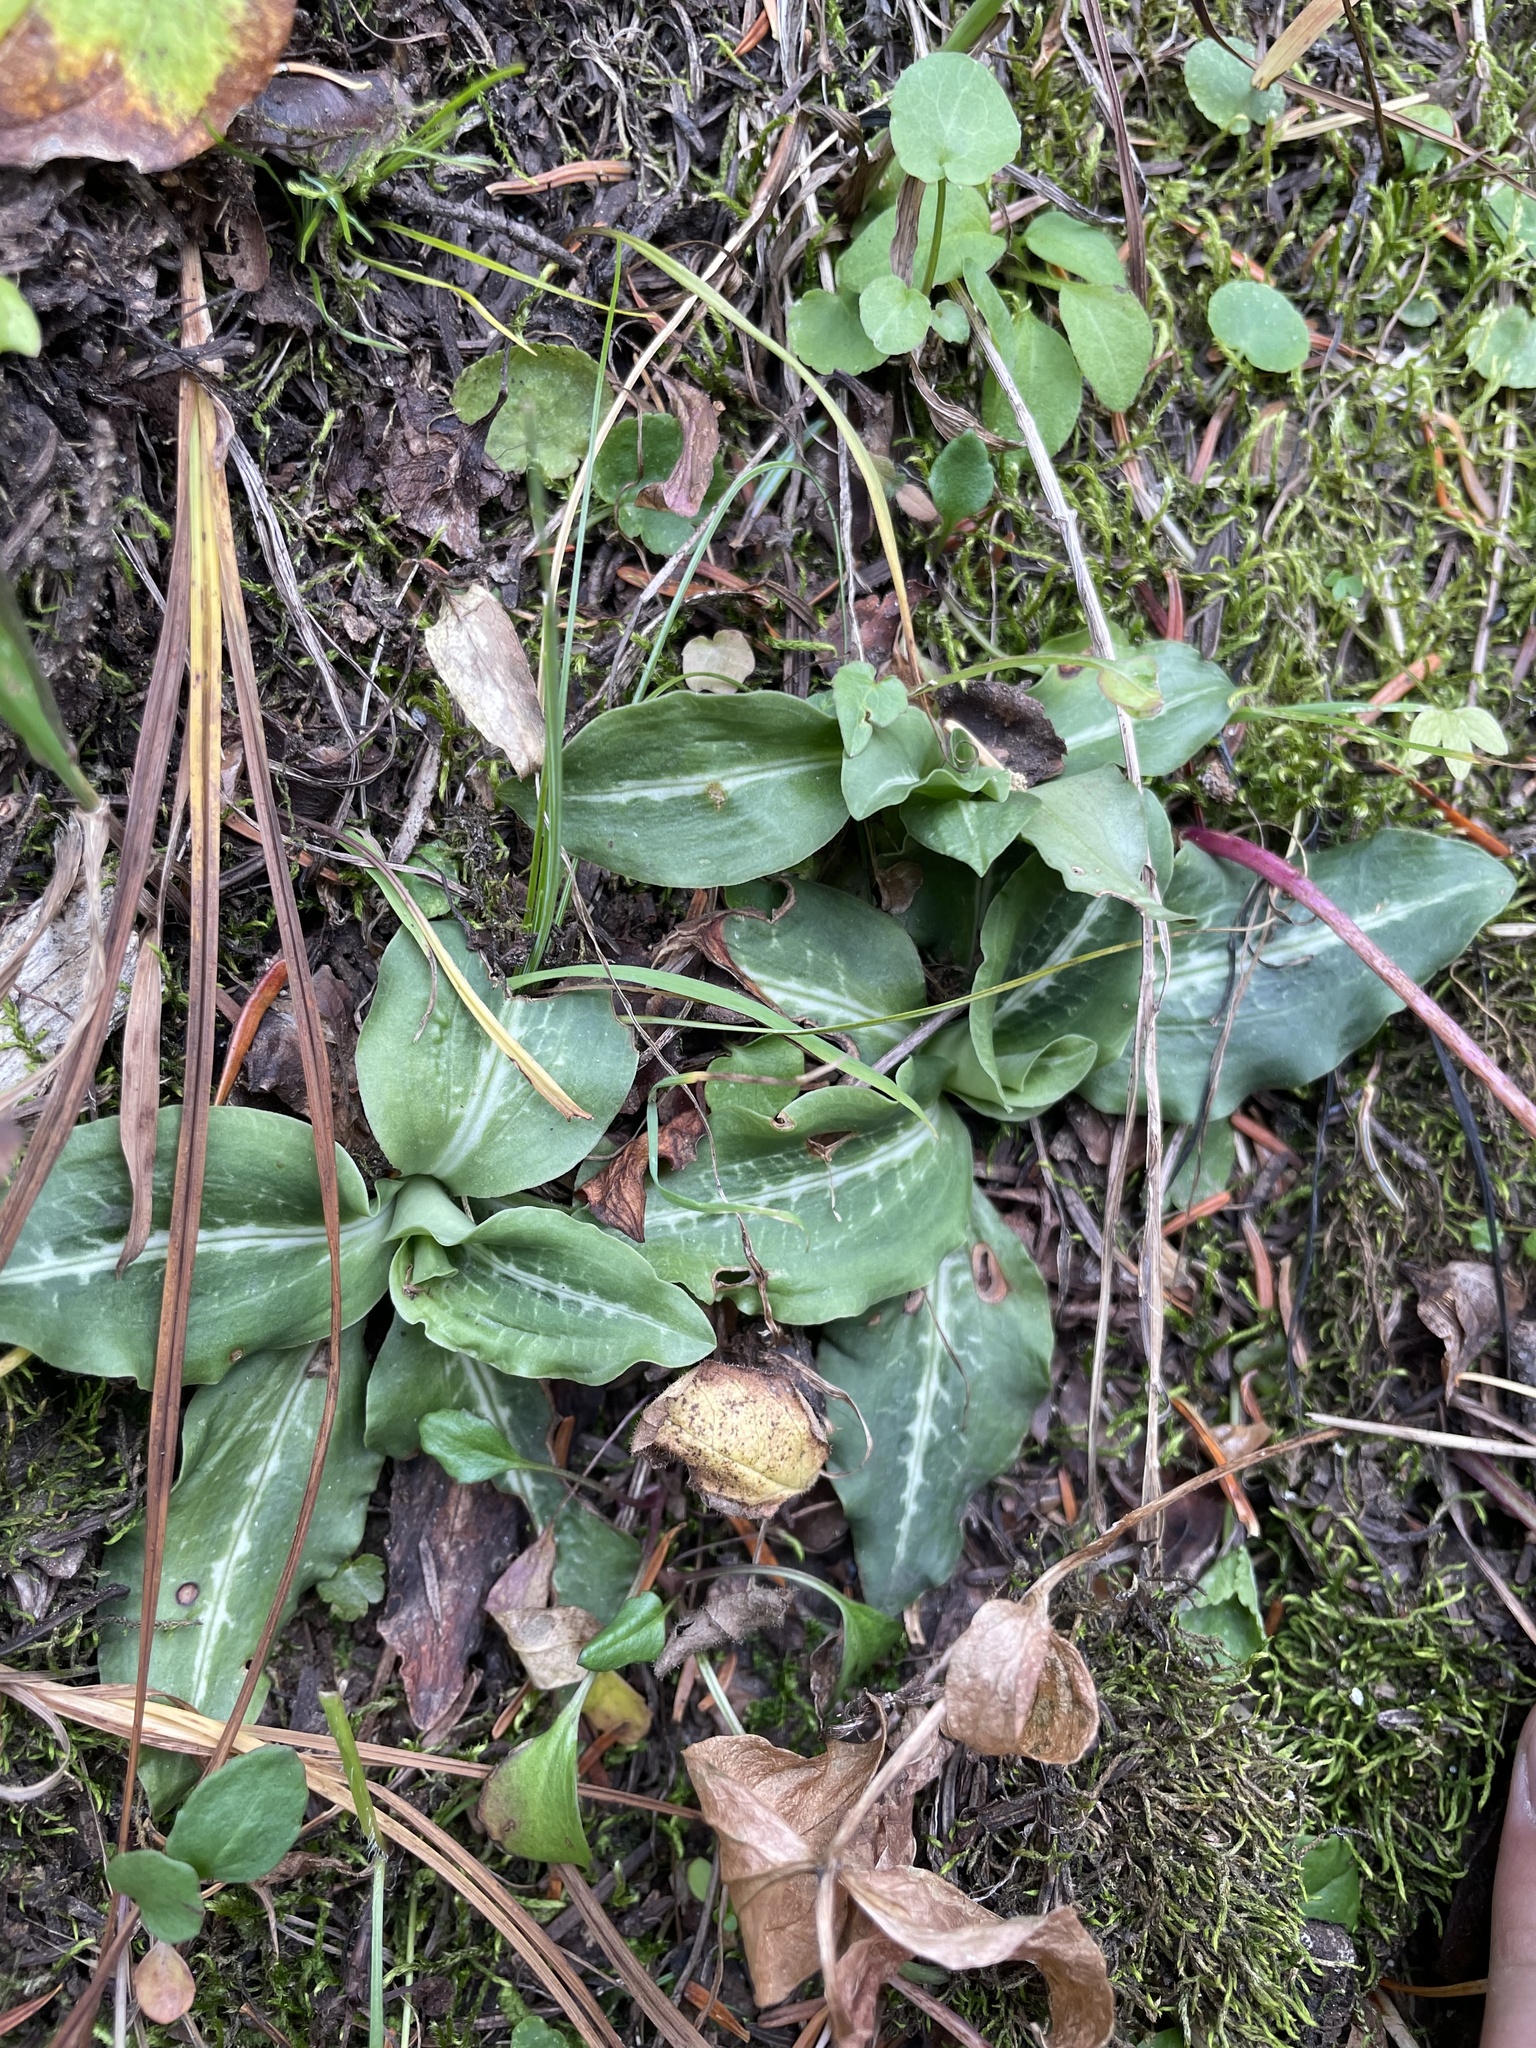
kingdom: Plantae
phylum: Tracheophyta
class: Liliopsida
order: Asparagales
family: Orchidaceae
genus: Goodyera
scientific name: Goodyera oblongifolia
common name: Giant rattlesnake-plantain
